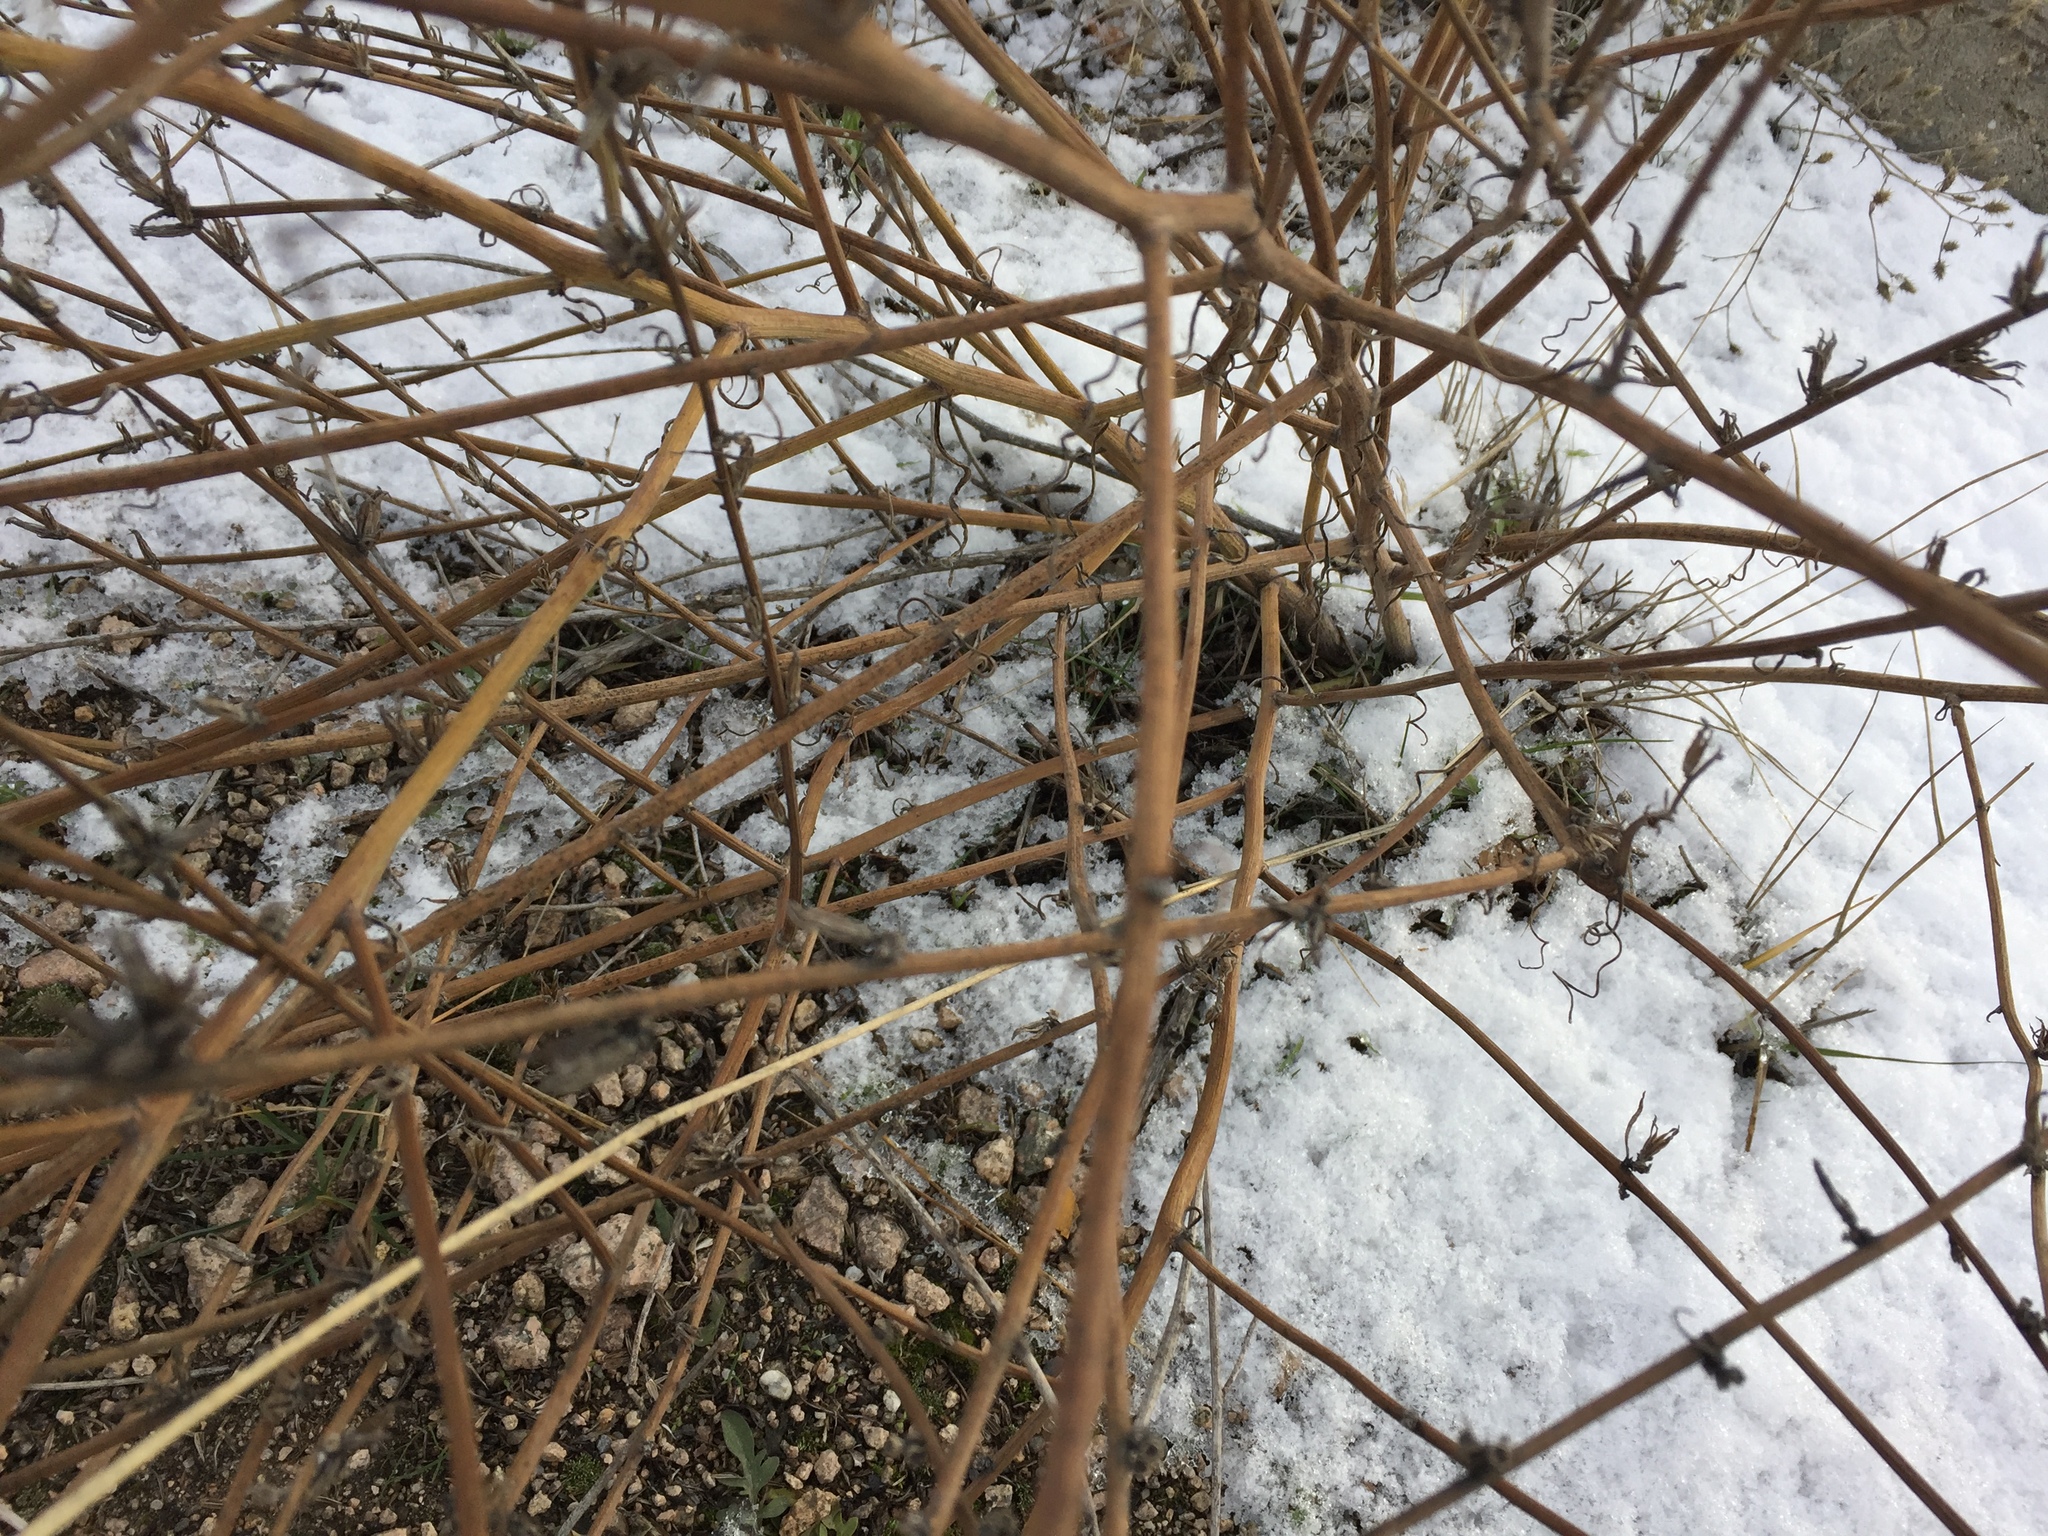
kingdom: Plantae
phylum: Tracheophyta
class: Magnoliopsida
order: Asterales
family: Asteraceae
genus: Chondrilla
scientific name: Chondrilla juncea
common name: Skeleton weed
